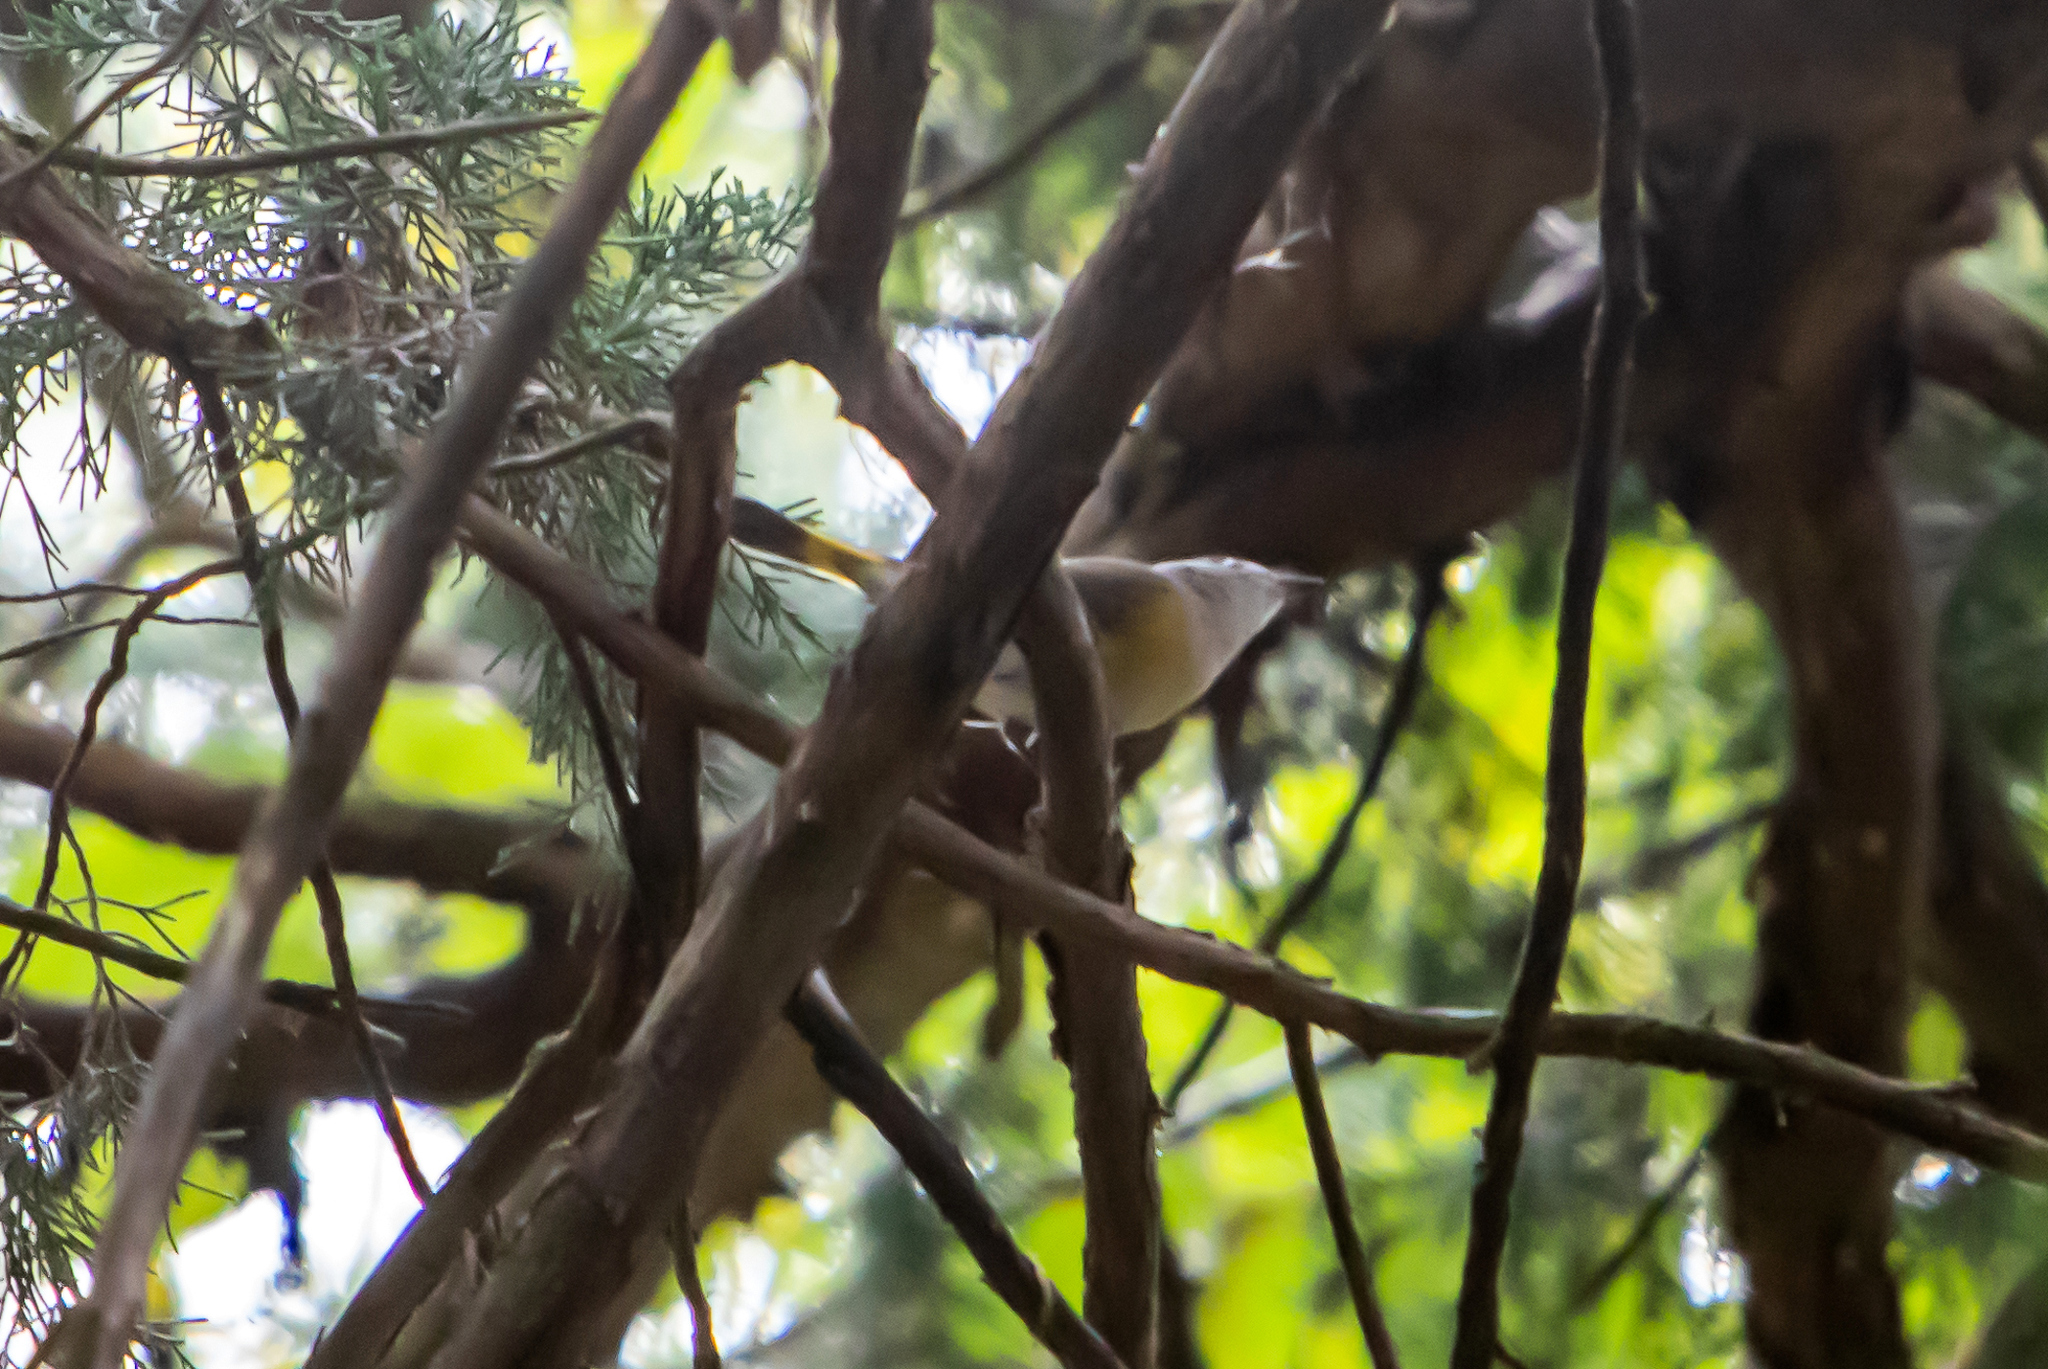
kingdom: Animalia
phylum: Chordata
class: Aves
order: Passeriformes
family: Parulidae
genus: Setophaga
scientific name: Setophaga ruticilla
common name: American redstart
